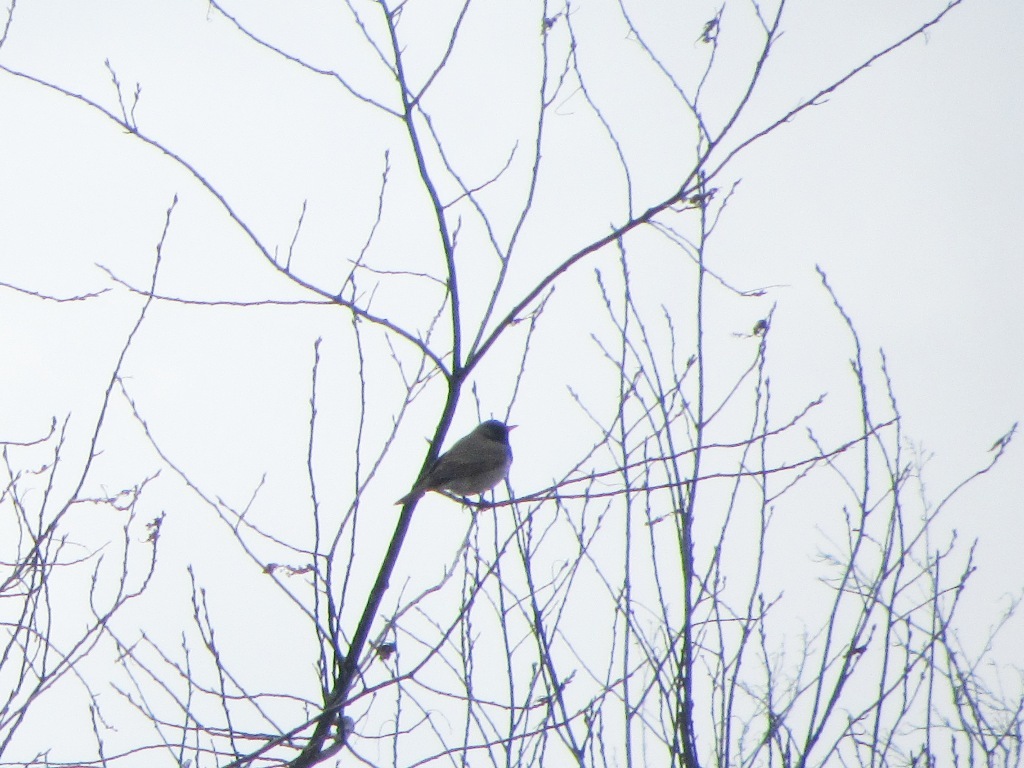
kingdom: Animalia
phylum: Chordata
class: Aves
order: Passeriformes
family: Turdidae
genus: Turdus
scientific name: Turdus atrogularis
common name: Black-throated thrush
